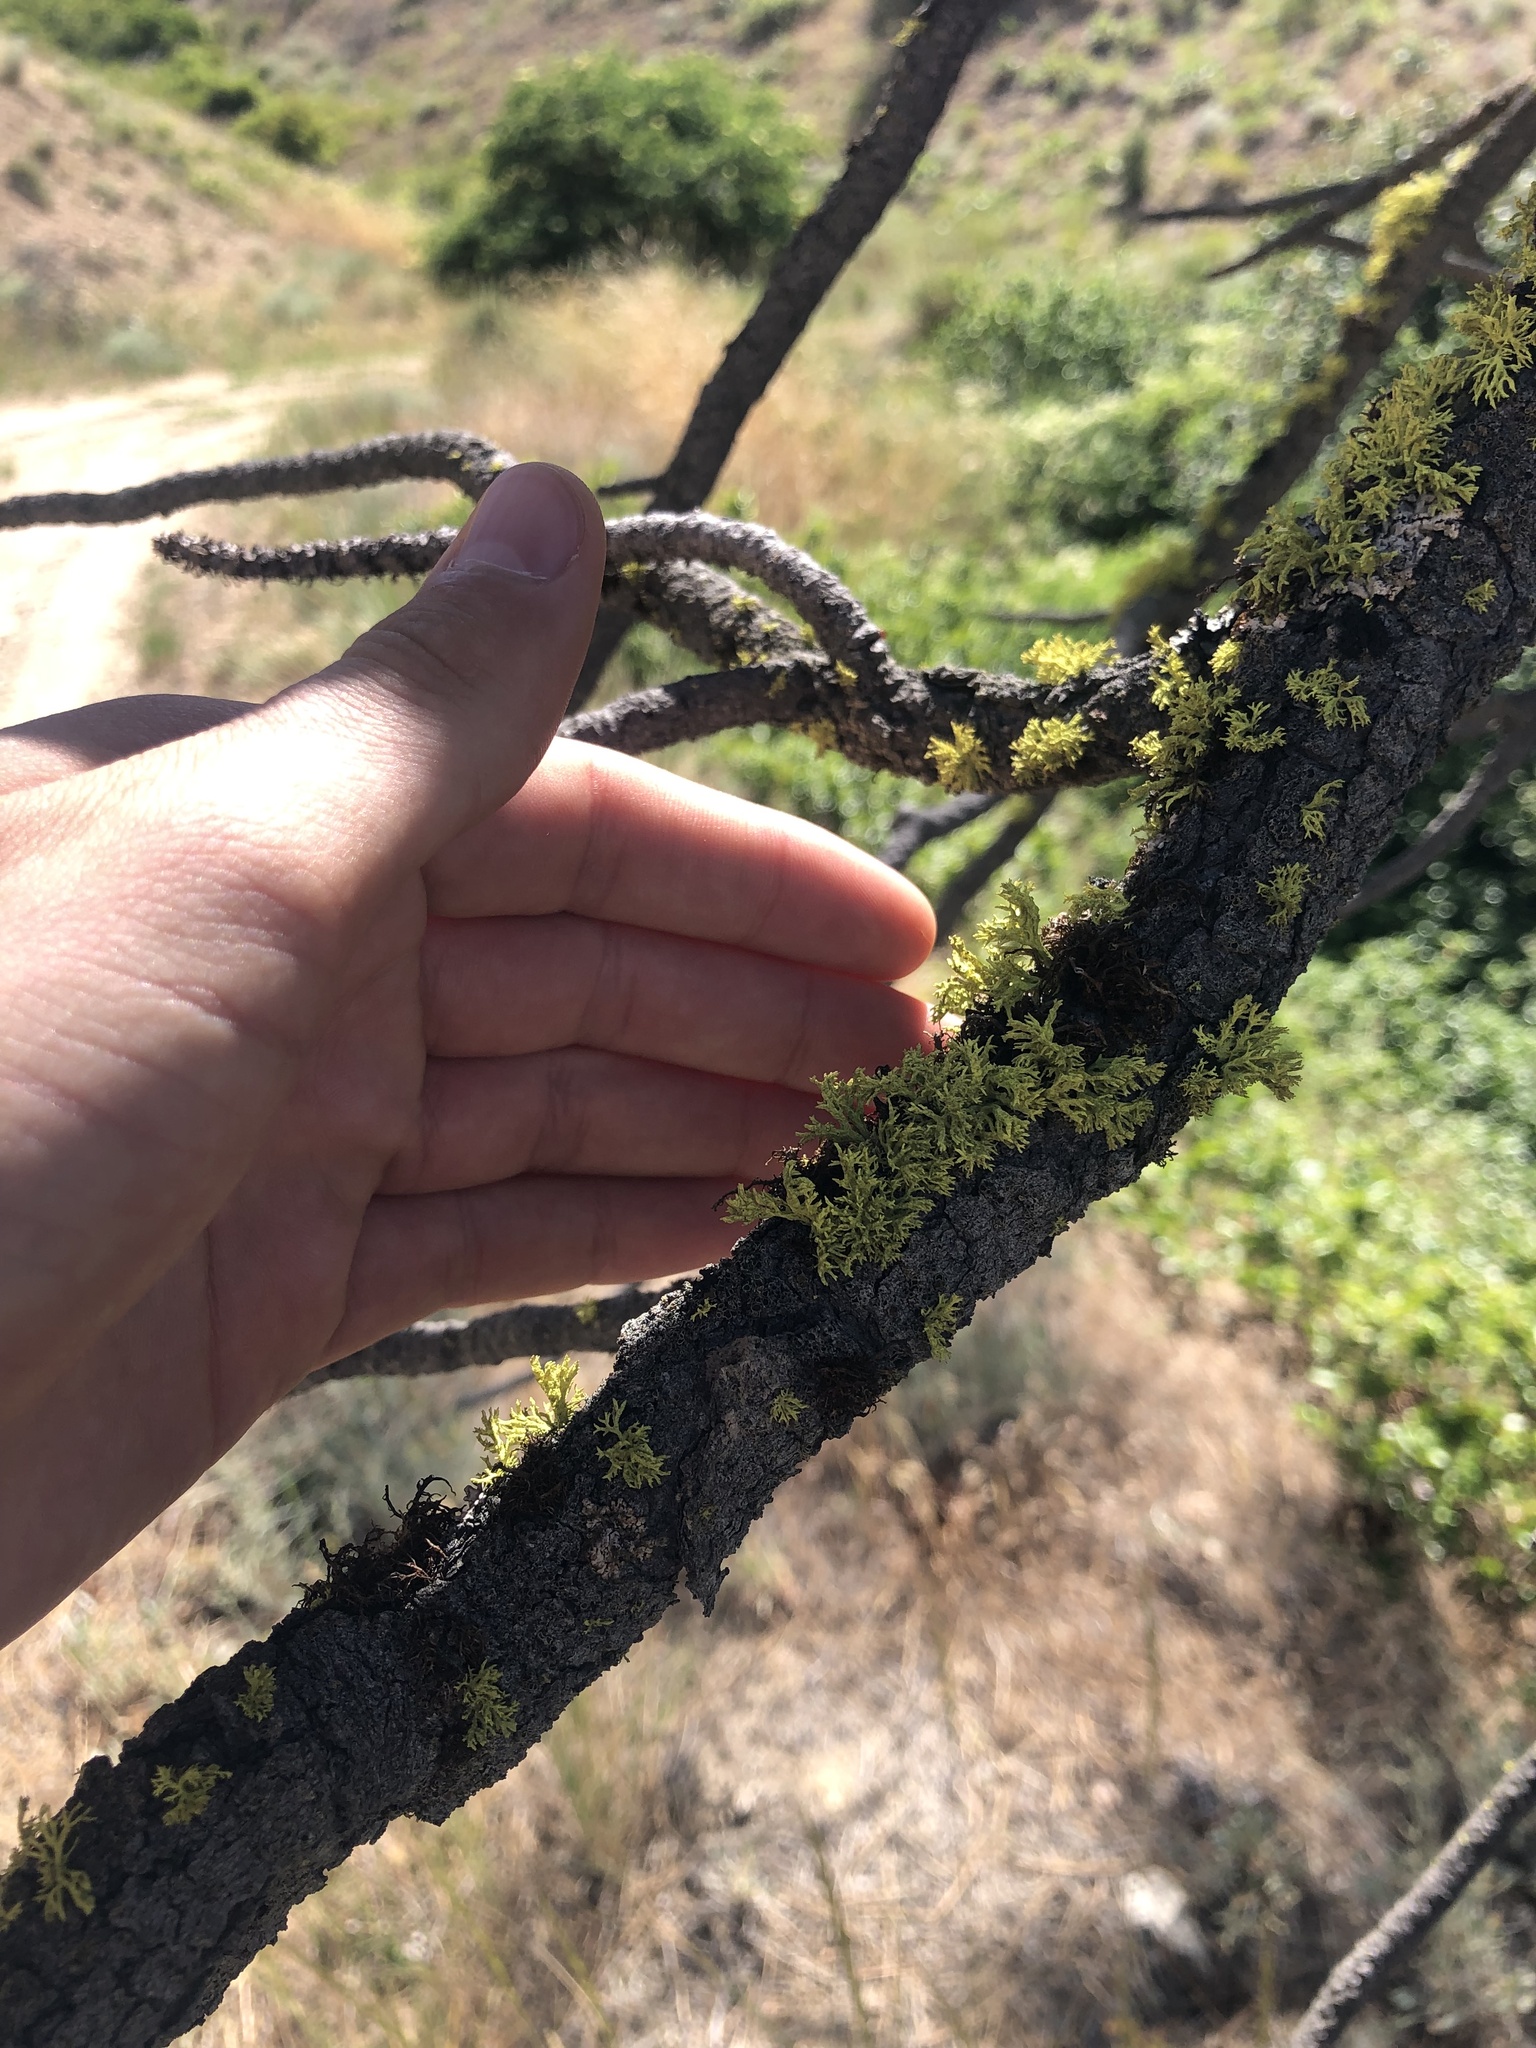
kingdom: Fungi
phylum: Ascomycota
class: Lecanoromycetes
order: Lecanorales
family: Parmeliaceae
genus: Letharia
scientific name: Letharia vulpina
